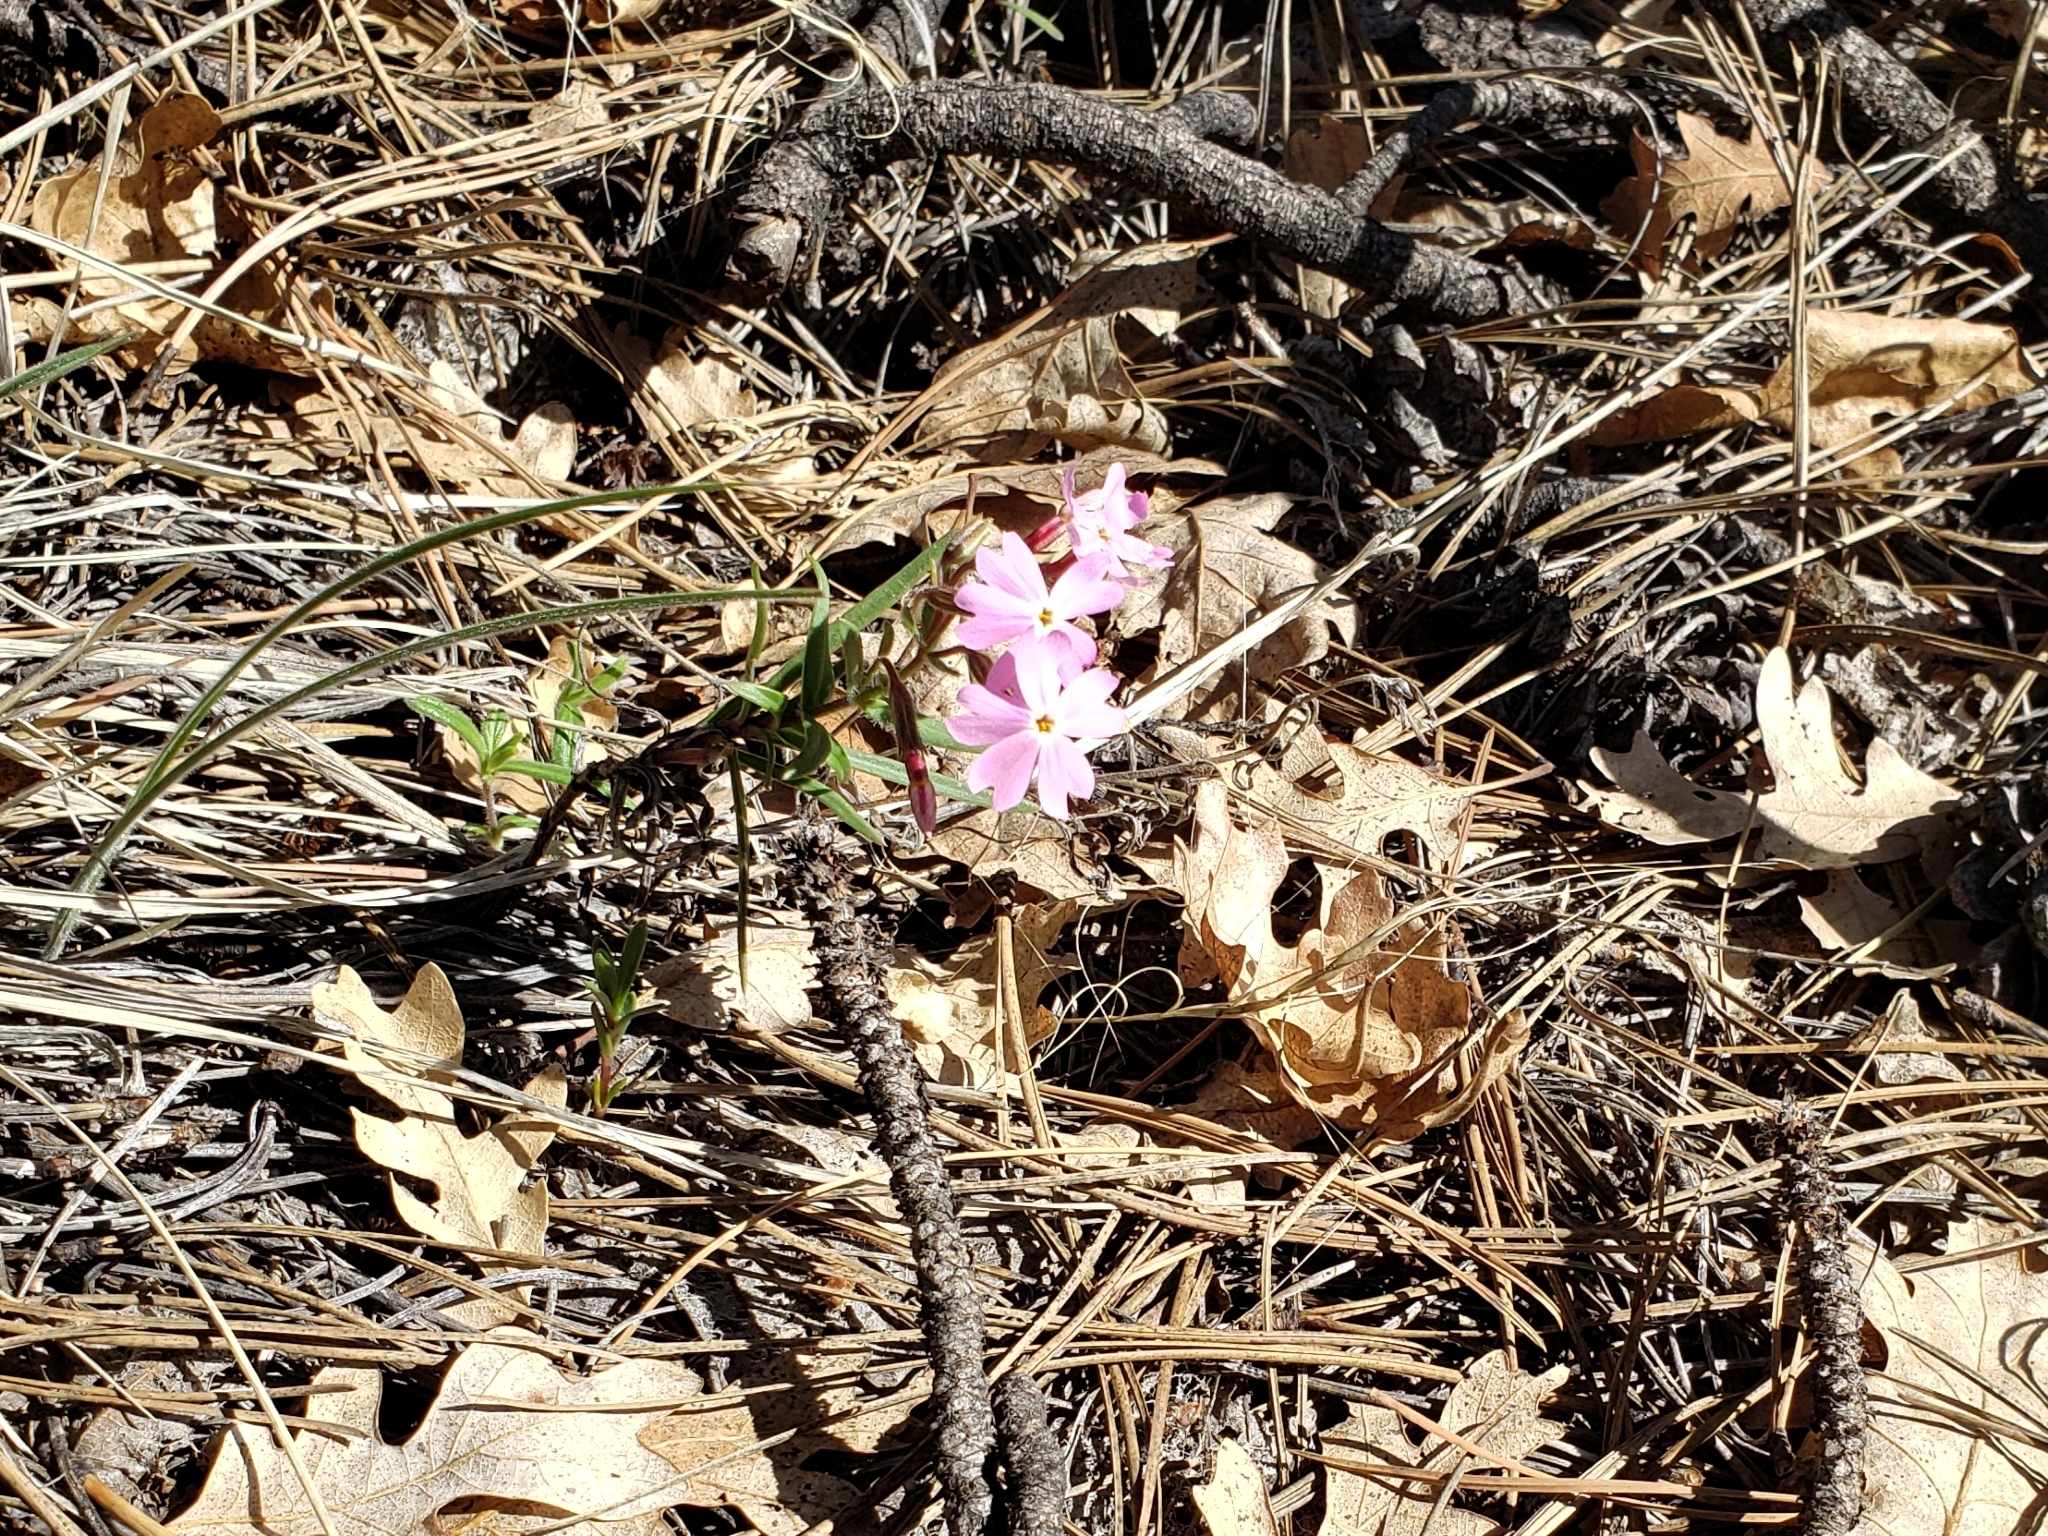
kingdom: Plantae
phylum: Tracheophyta
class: Magnoliopsida
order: Ericales
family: Polemoniaceae
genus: Phlox
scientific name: Phlox amabilis
